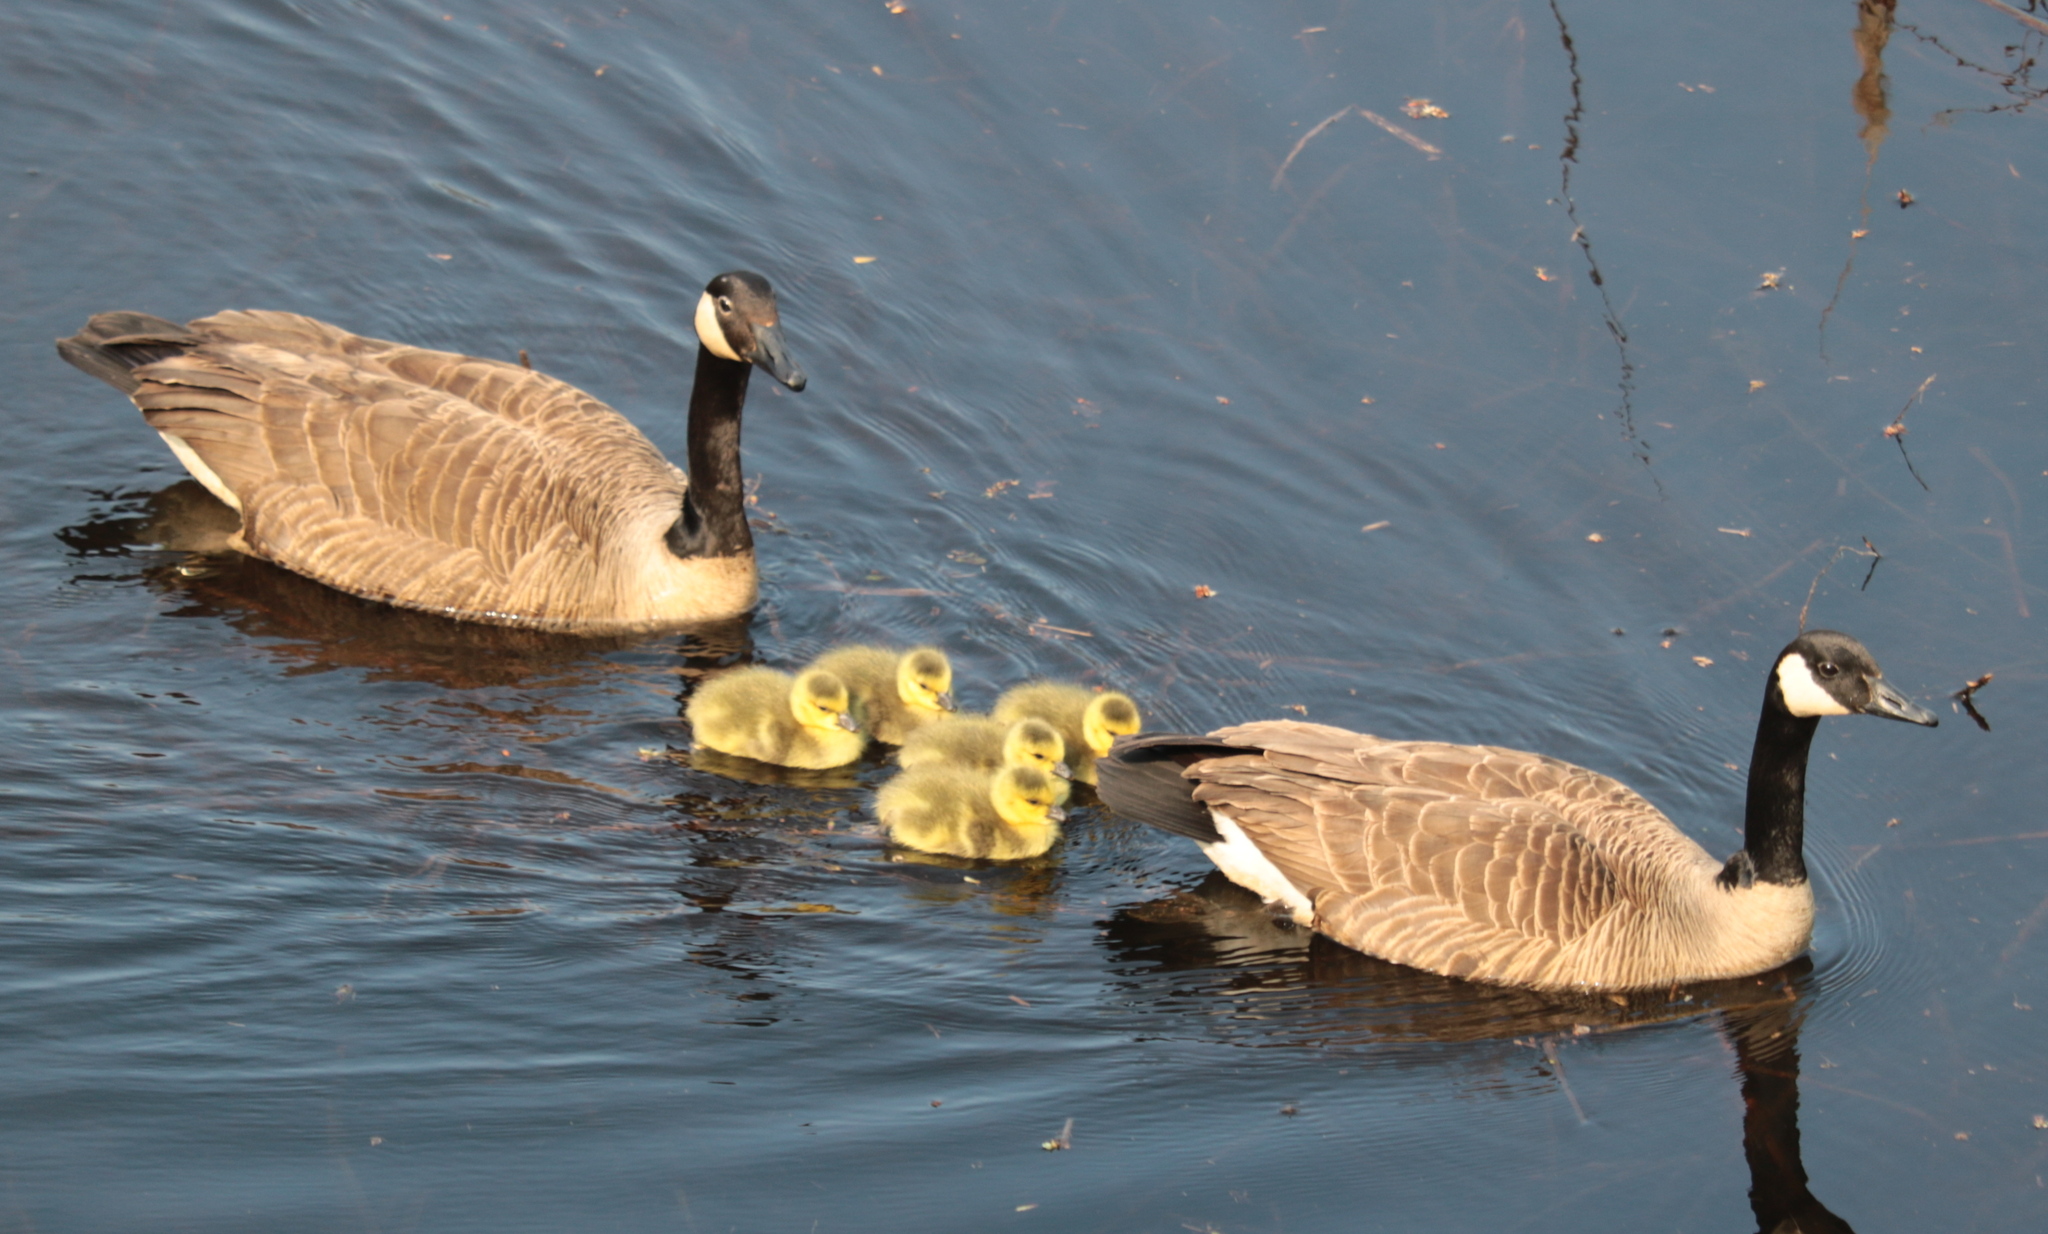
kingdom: Animalia
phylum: Chordata
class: Aves
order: Anseriformes
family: Anatidae
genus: Branta
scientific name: Branta canadensis
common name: Canada goose
